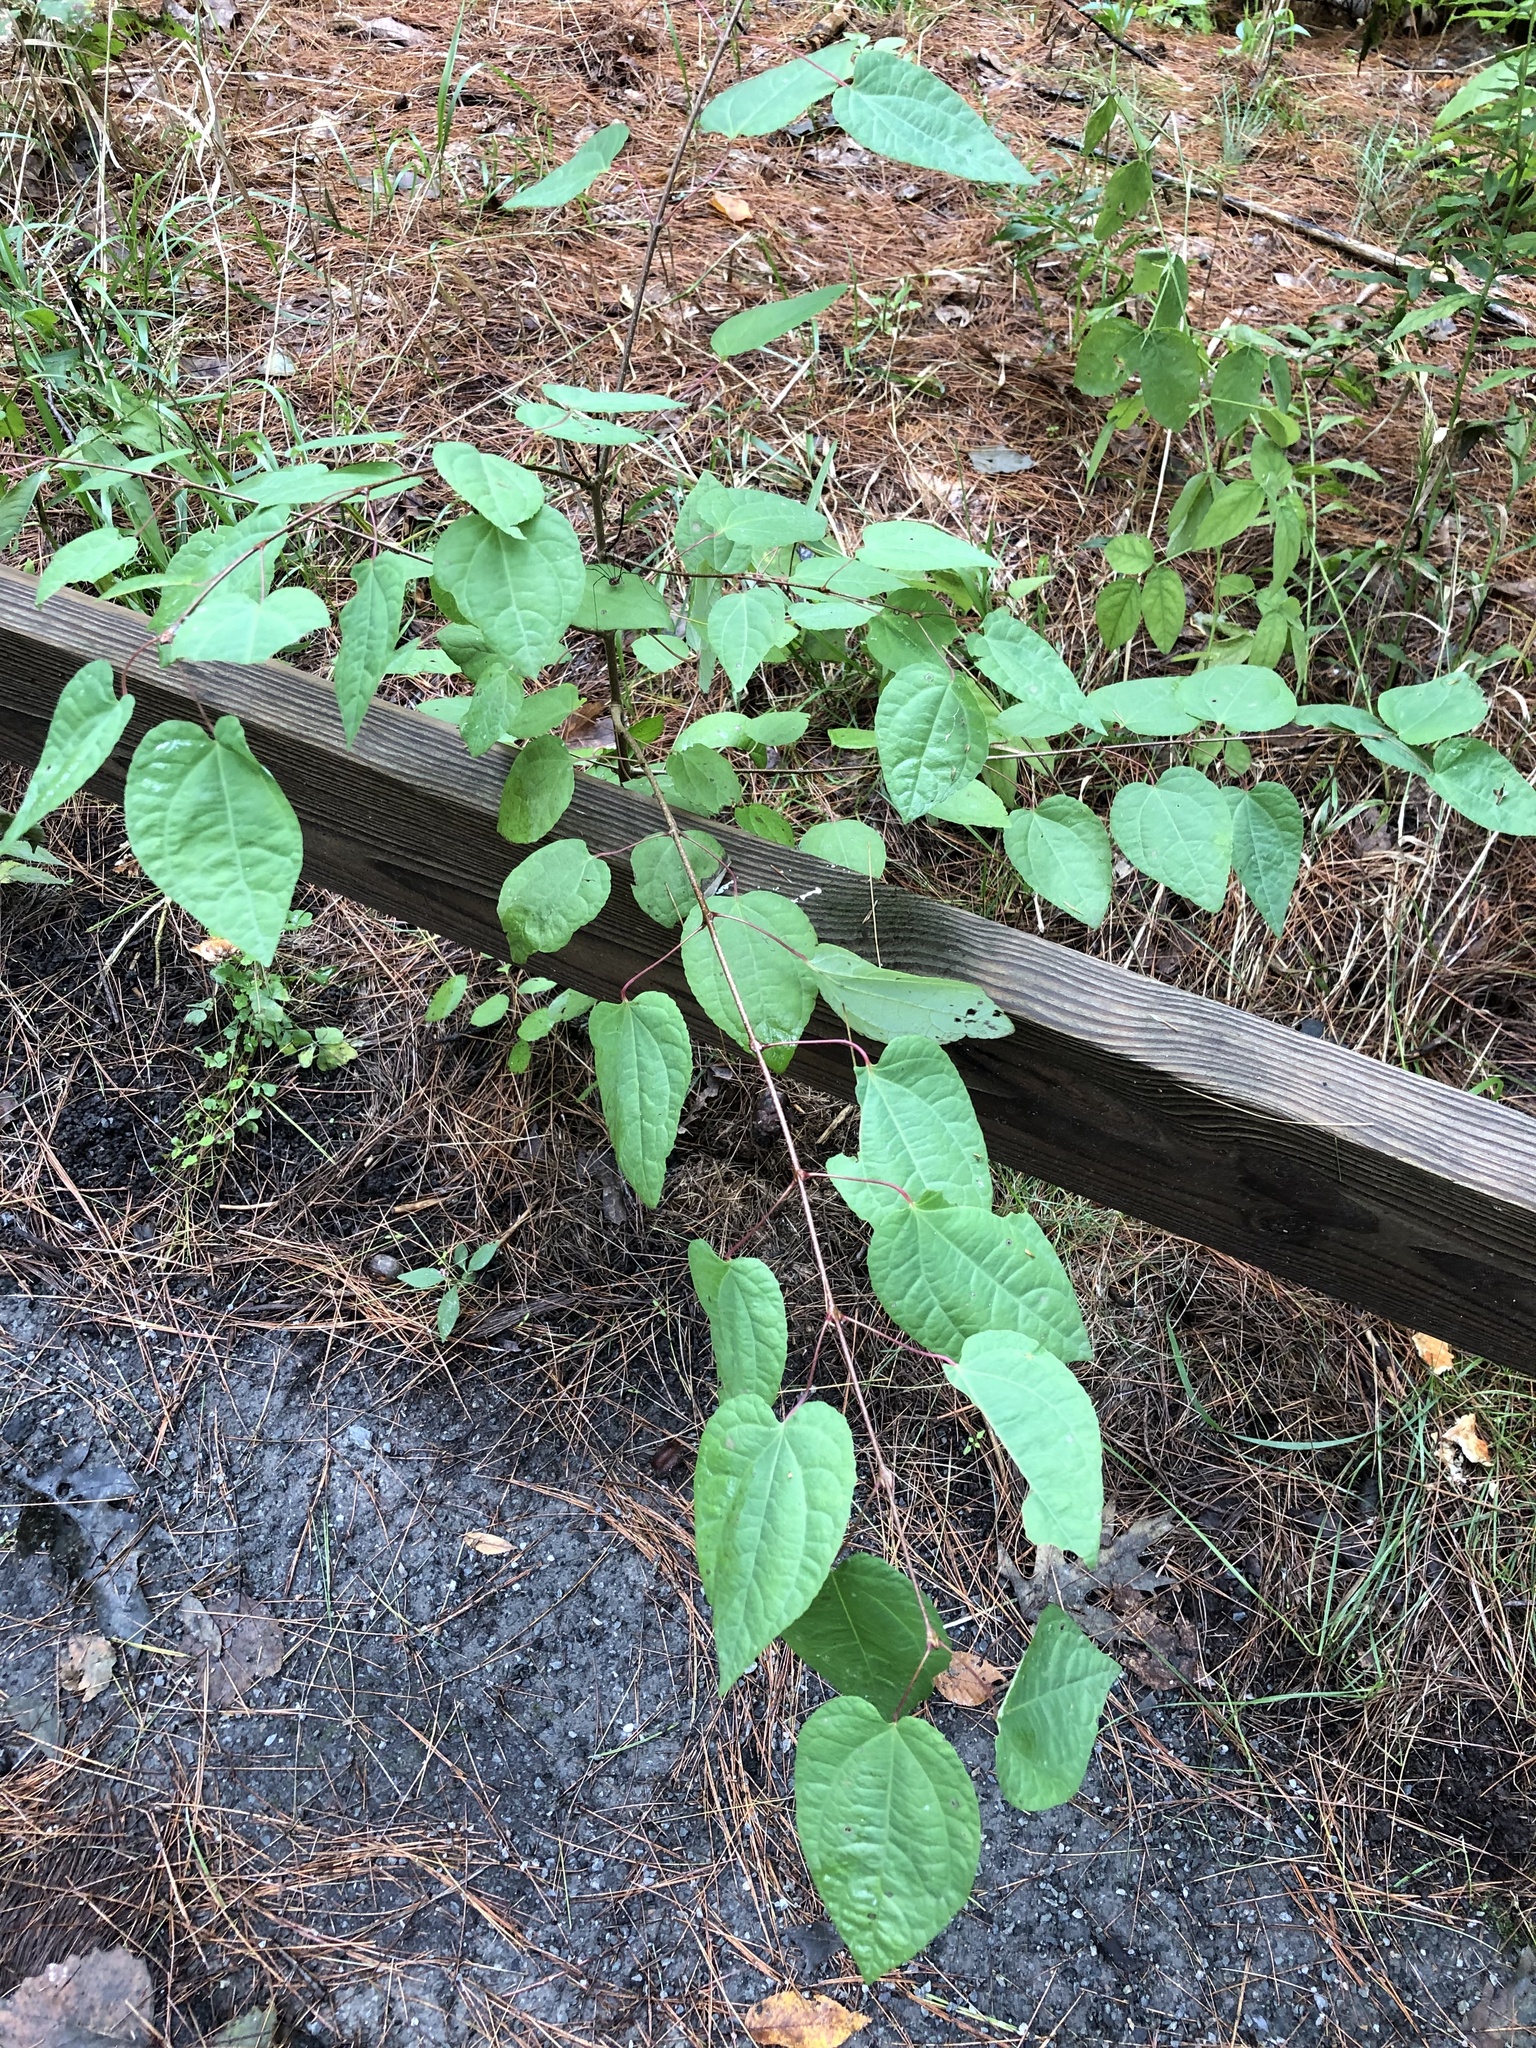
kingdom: Plantae
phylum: Tracheophyta
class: Magnoliopsida
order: Saxifragales
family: Cercidiphyllaceae
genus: Cercidiphyllum
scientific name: Cercidiphyllum japonicum
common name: Katsura tree
